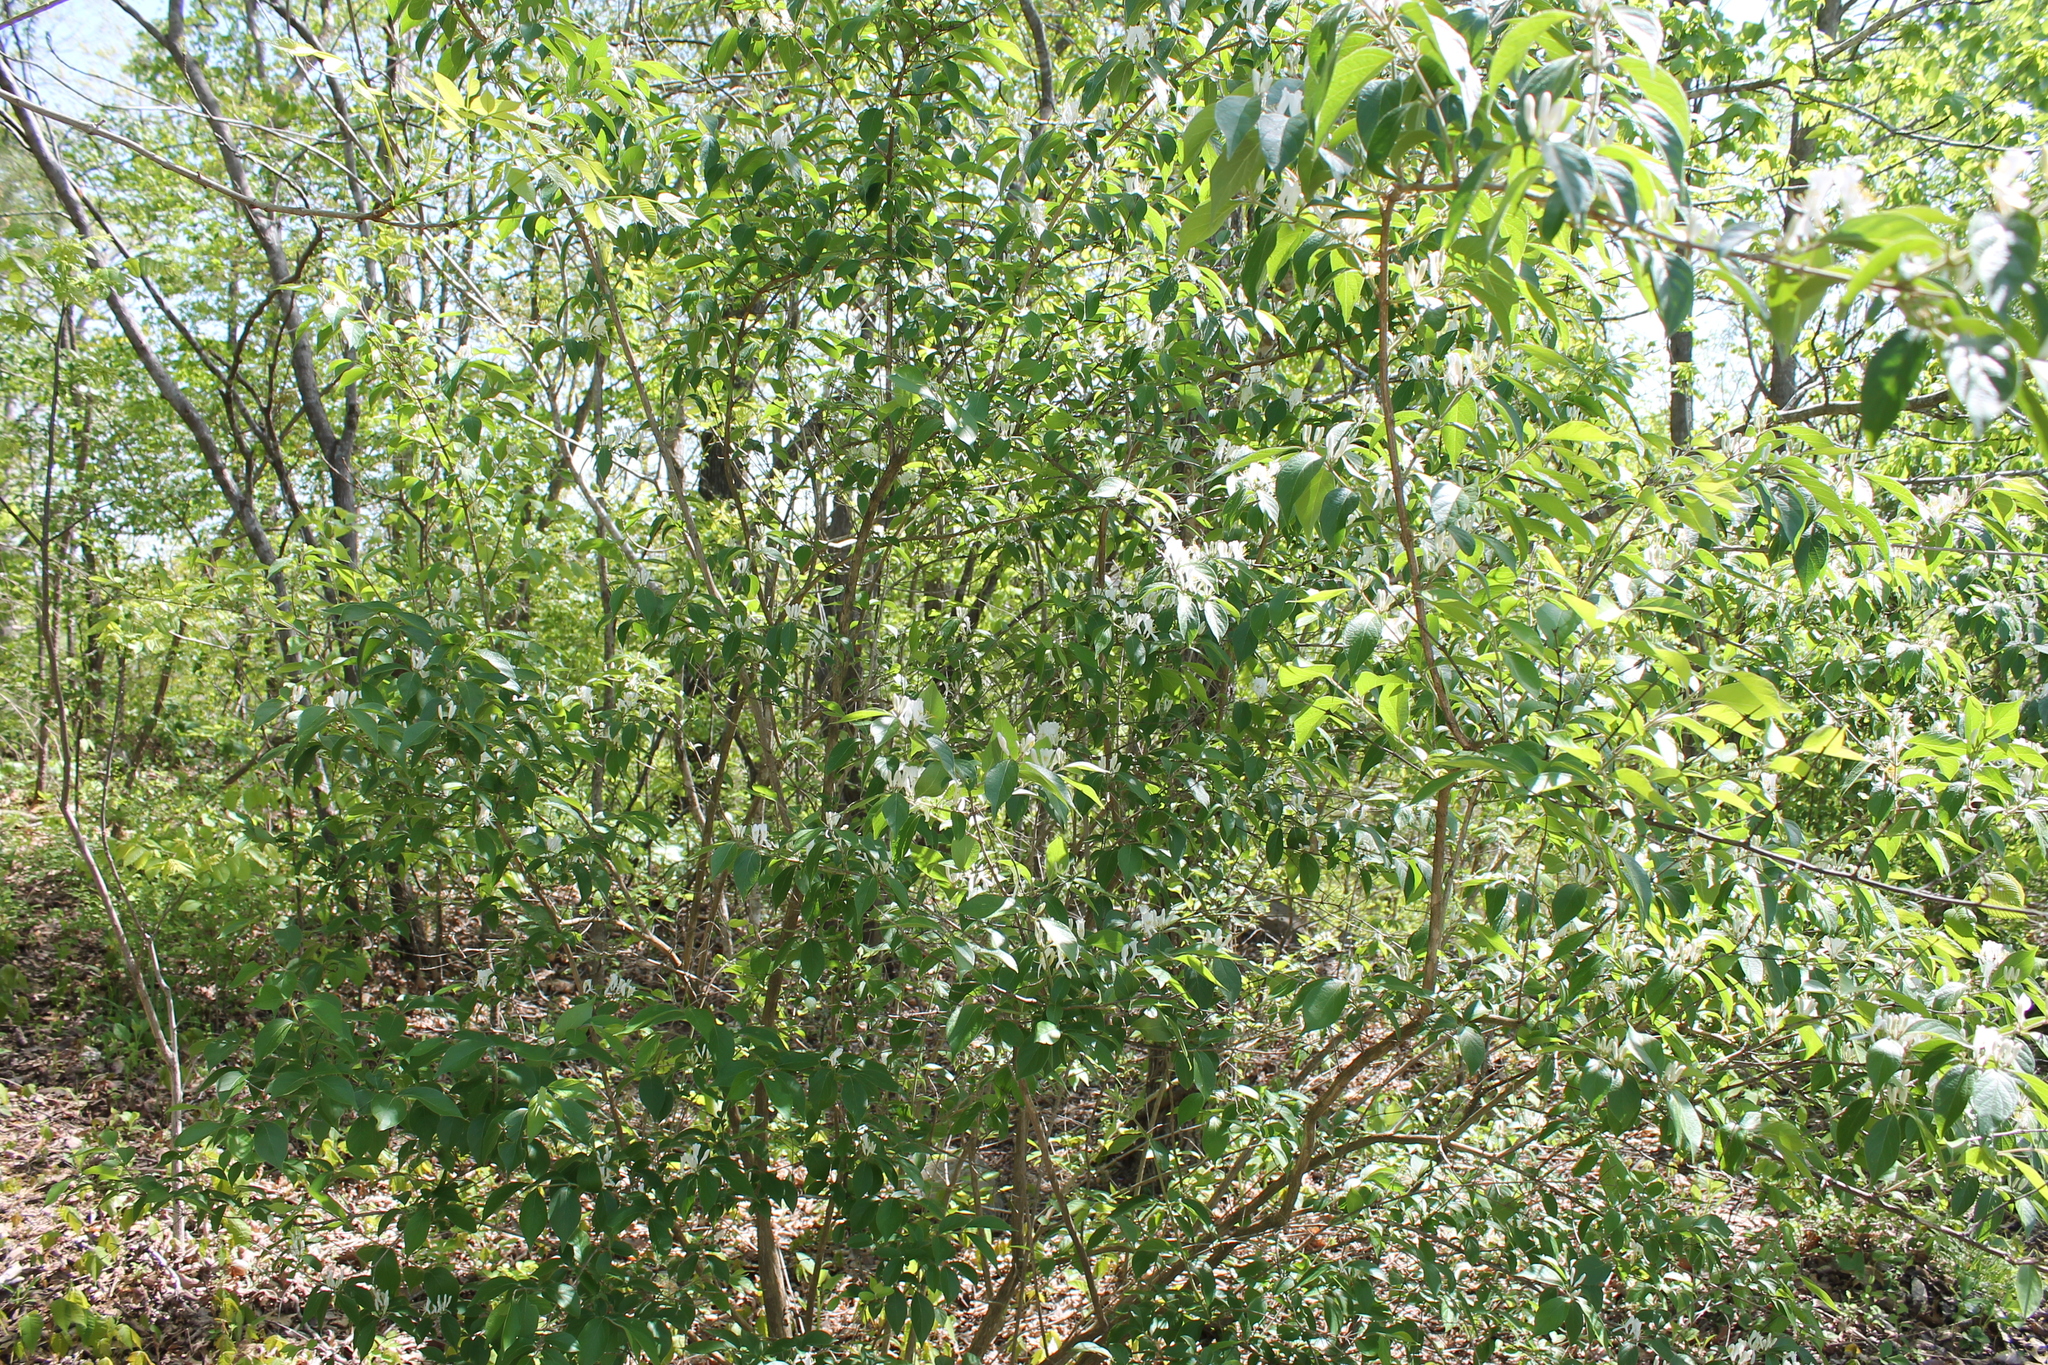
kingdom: Plantae
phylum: Tracheophyta
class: Magnoliopsida
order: Dipsacales
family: Caprifoliaceae
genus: Lonicera
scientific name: Lonicera maackii
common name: Amur honeysuckle
